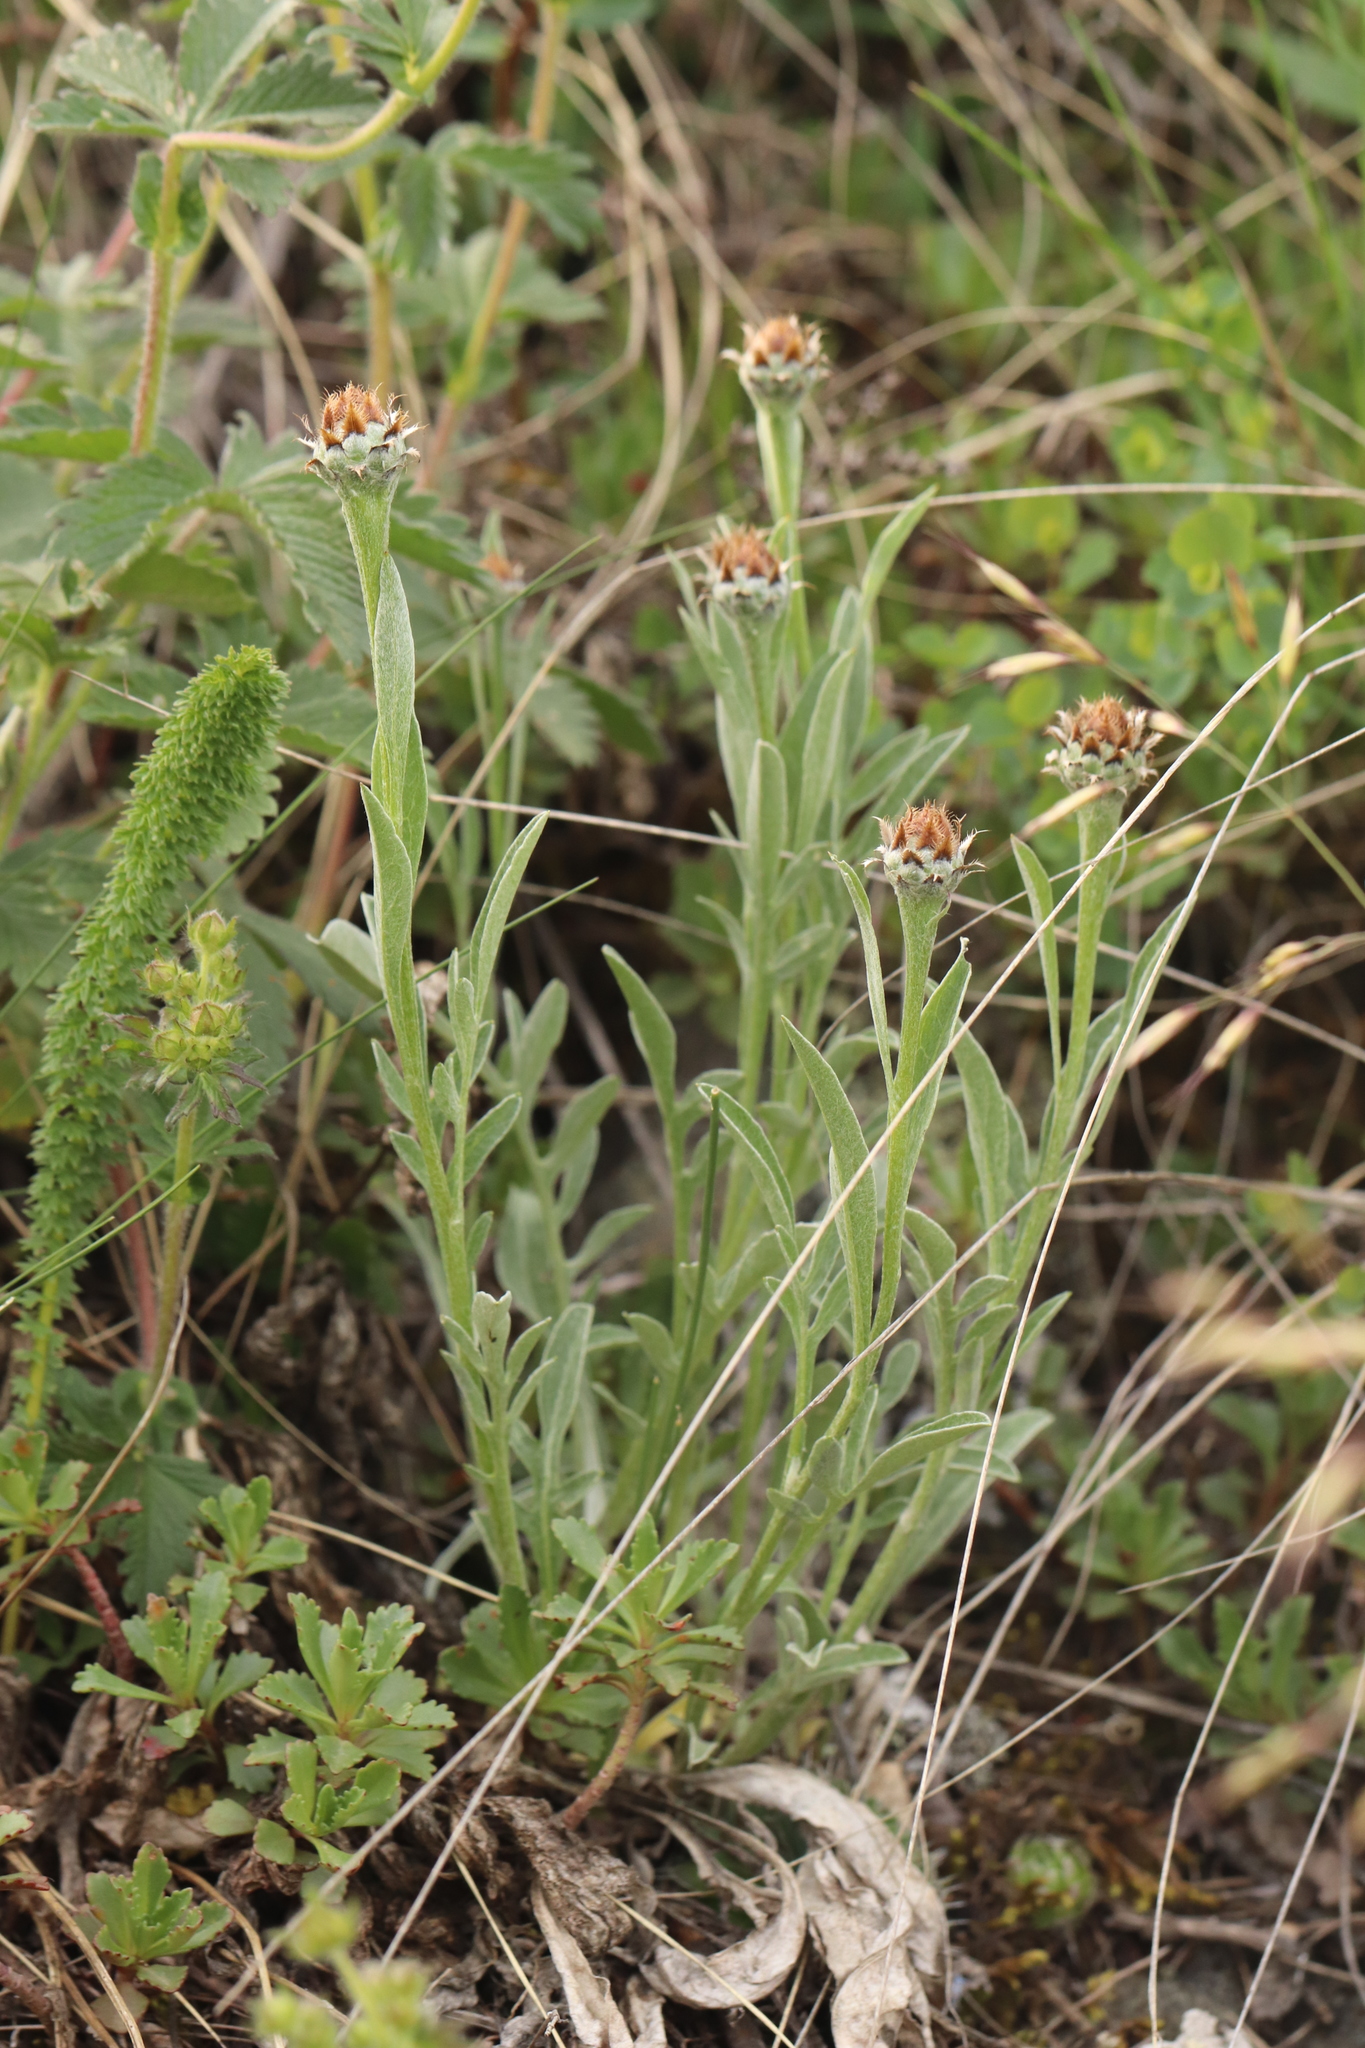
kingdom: Plantae
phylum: Tracheophyta
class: Magnoliopsida
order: Asterales
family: Asteraceae
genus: Psephellus
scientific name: Psephellus sibiricus
